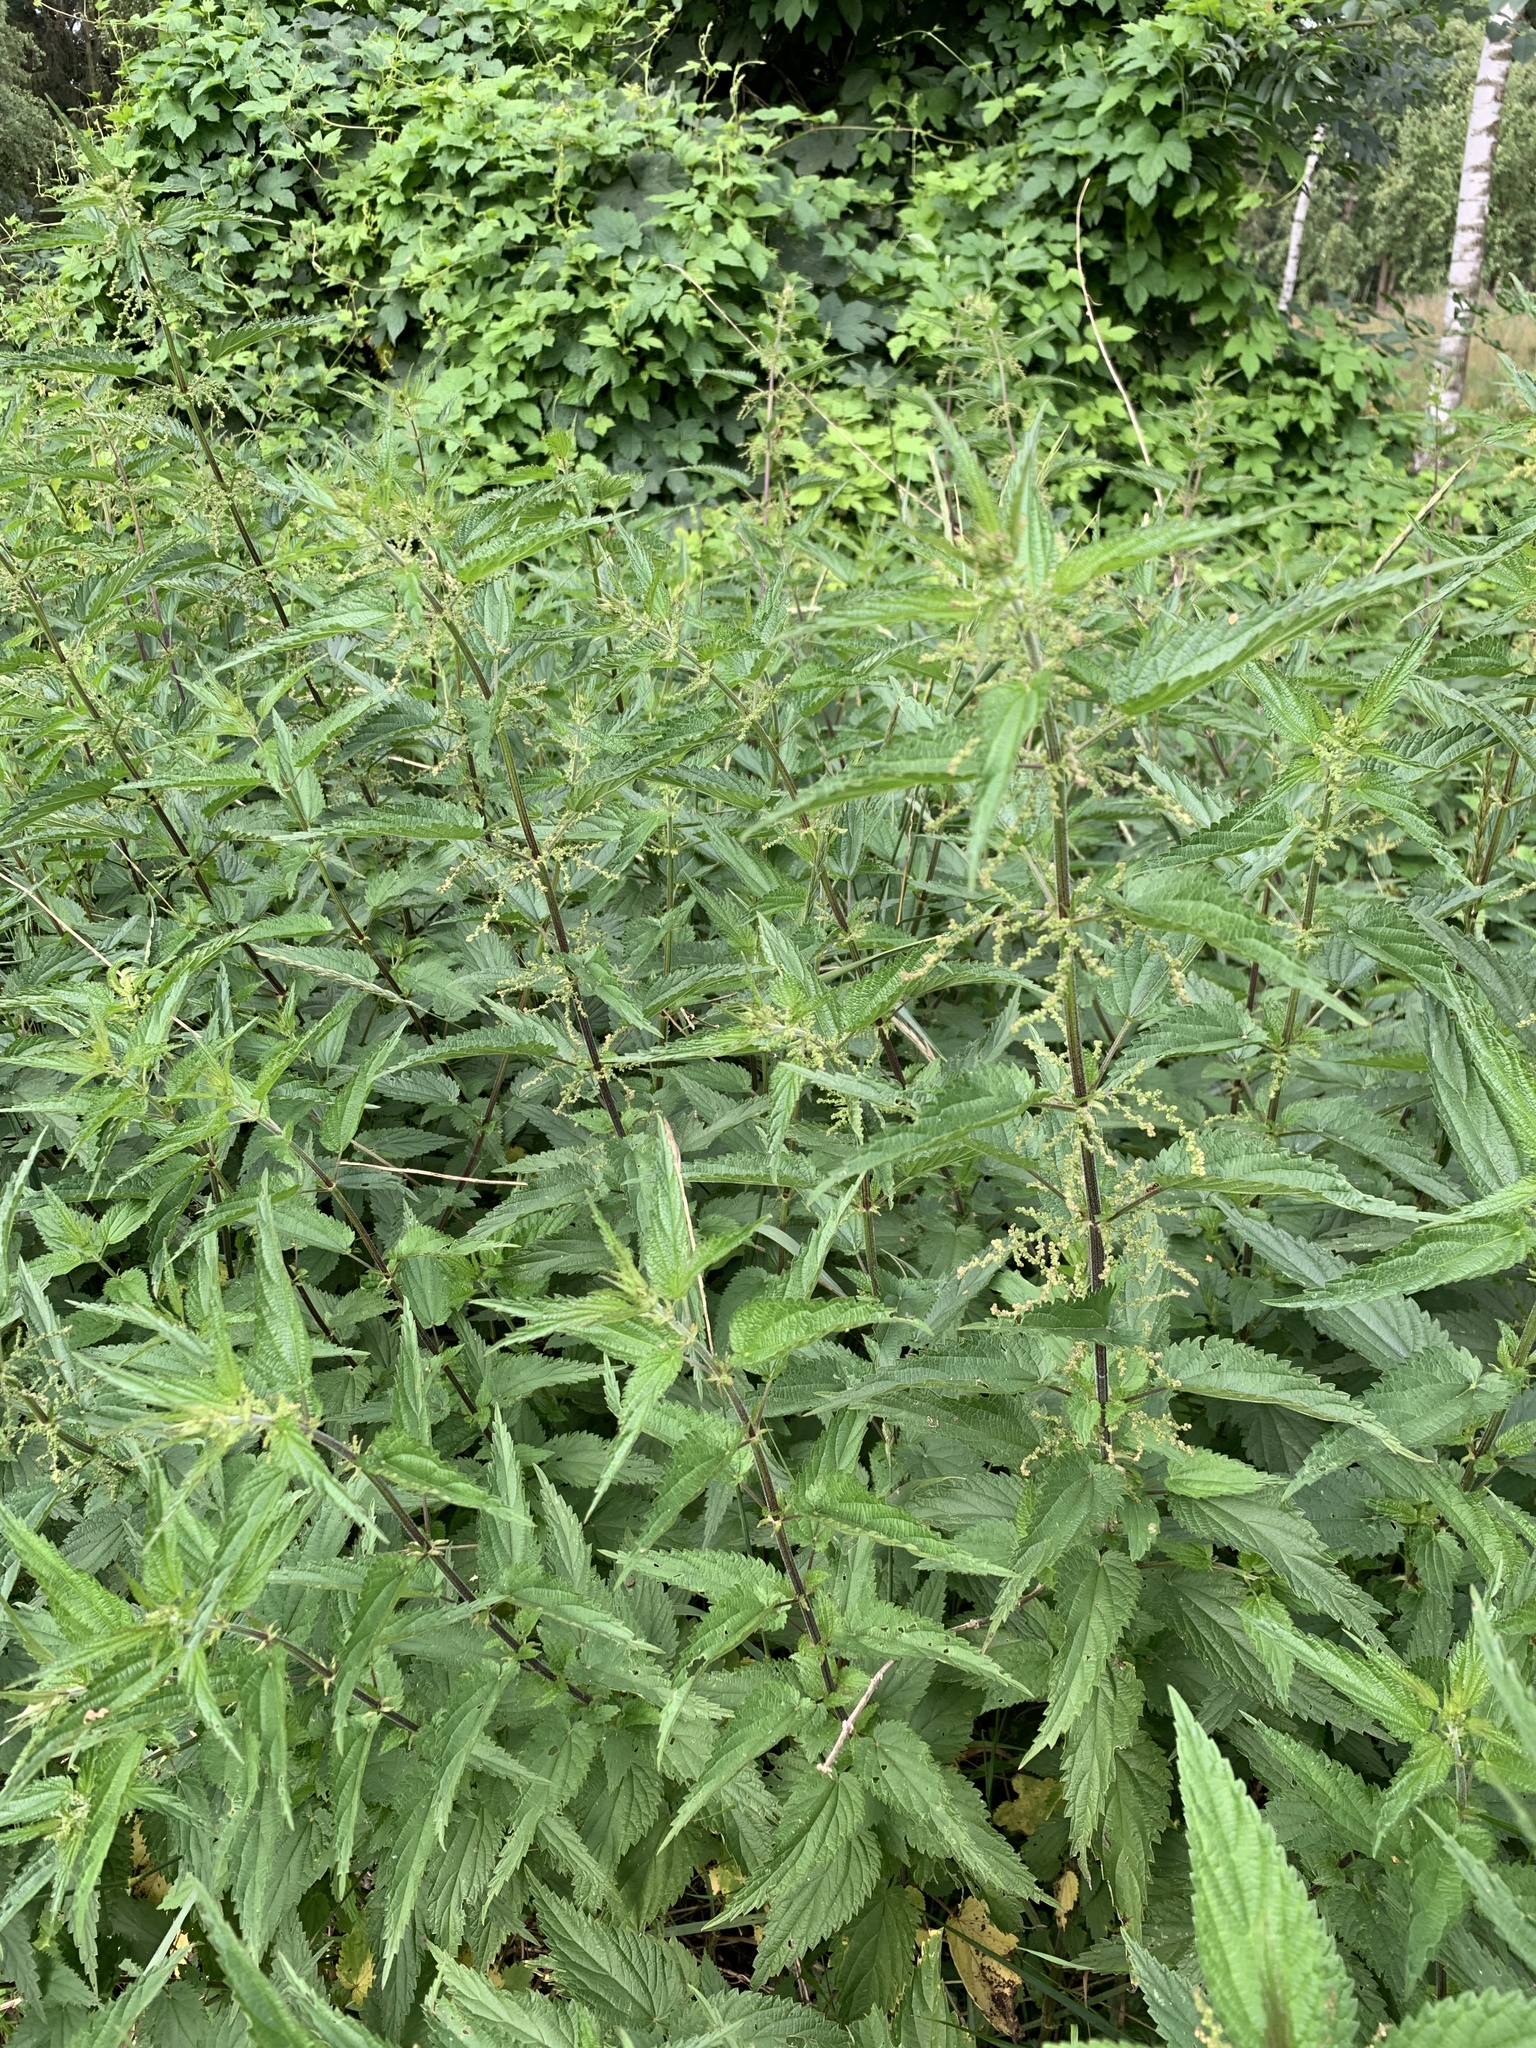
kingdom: Plantae
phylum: Tracheophyta
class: Magnoliopsida
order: Rosales
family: Urticaceae
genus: Urtica
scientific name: Urtica dioica
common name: Common nettle
